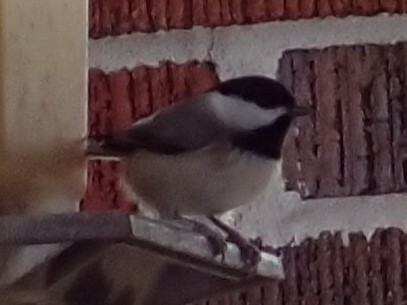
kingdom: Animalia
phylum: Chordata
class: Aves
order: Passeriformes
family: Paridae
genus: Poecile
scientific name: Poecile carolinensis
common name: Carolina chickadee
